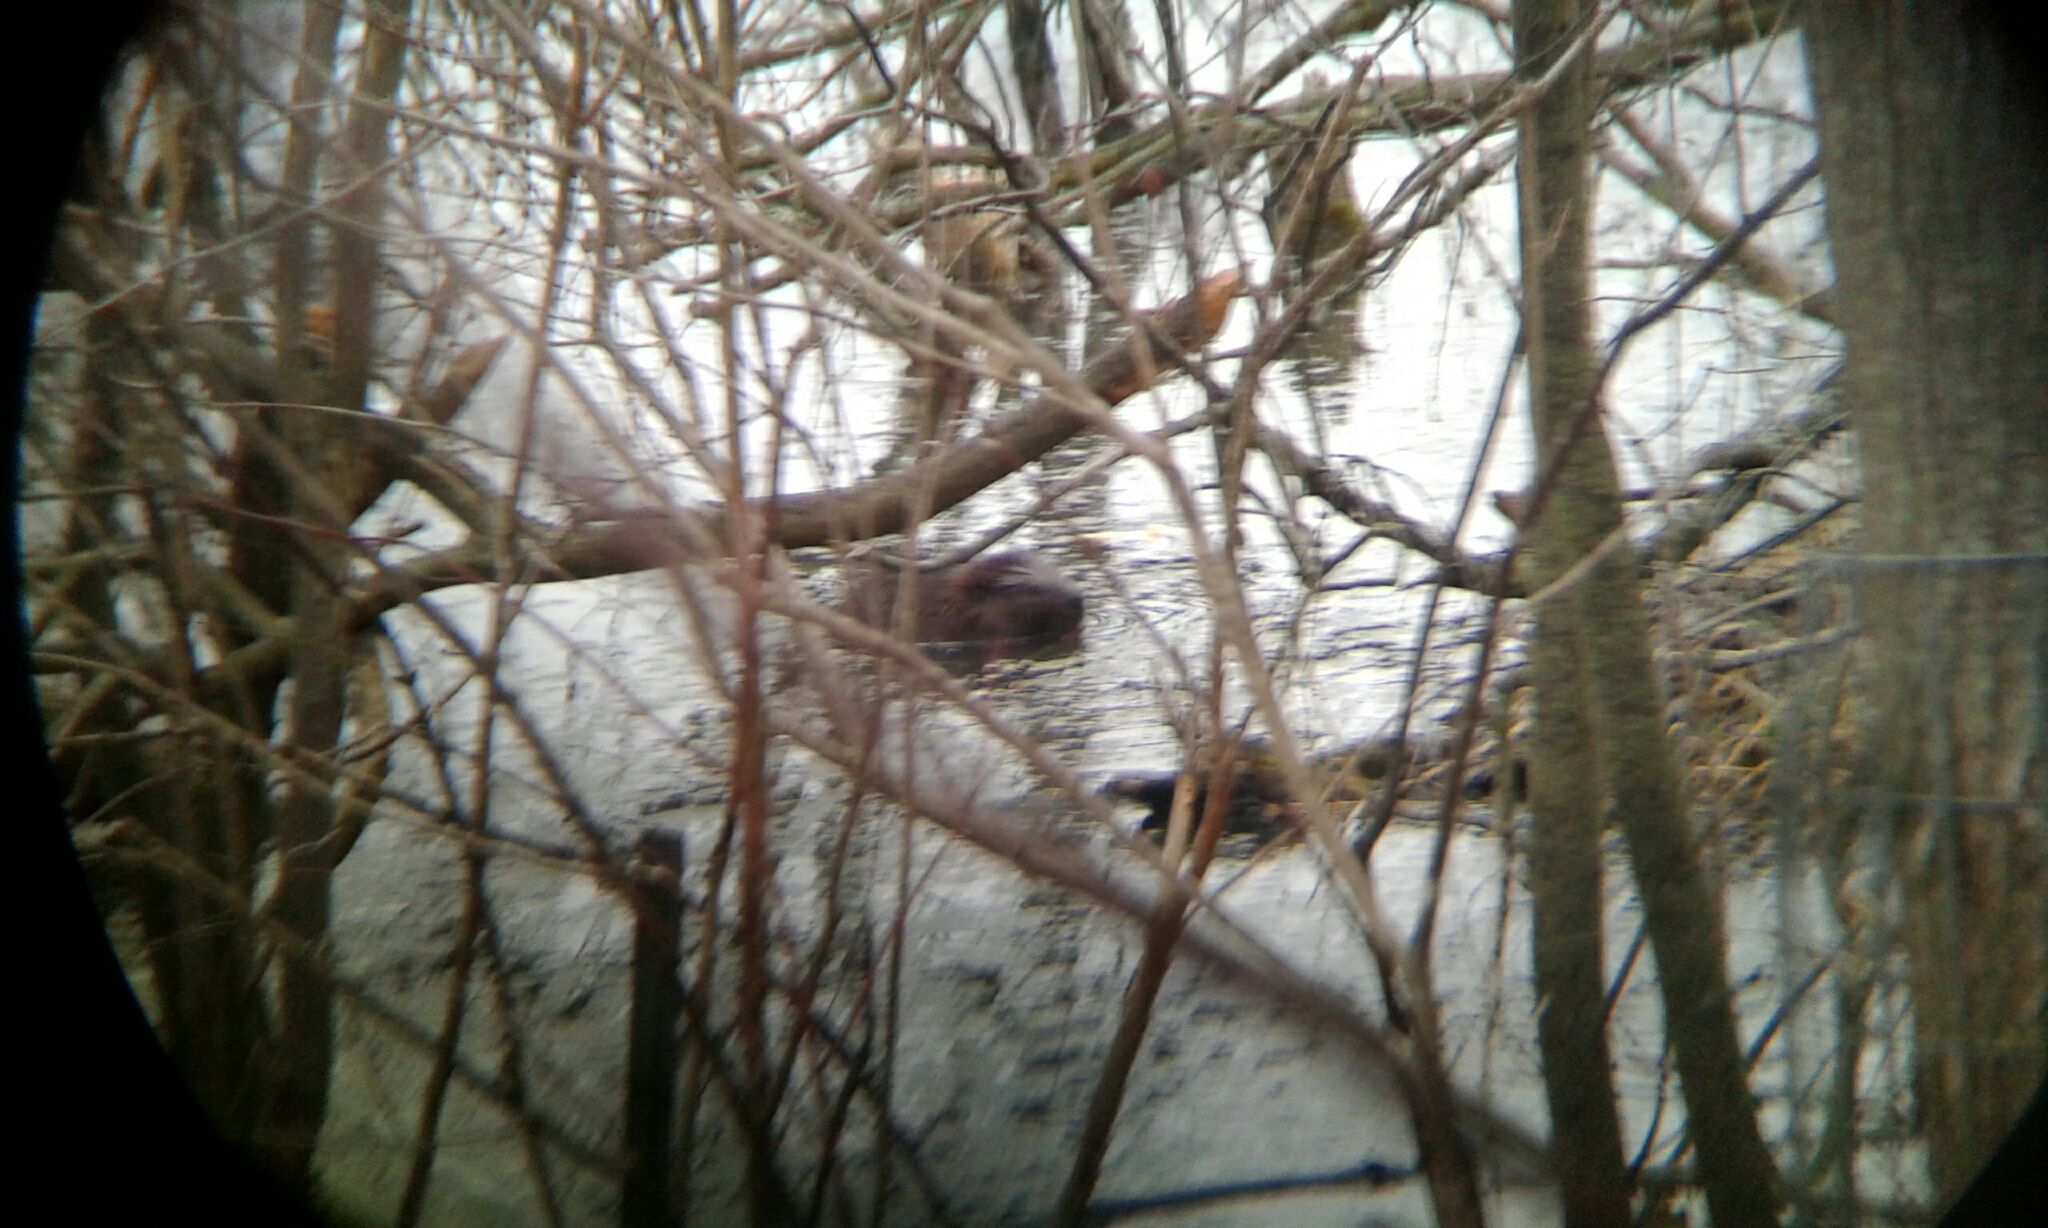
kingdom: Animalia
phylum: Chordata
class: Mammalia
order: Rodentia
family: Castoridae
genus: Castor
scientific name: Castor canadensis
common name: American beaver
